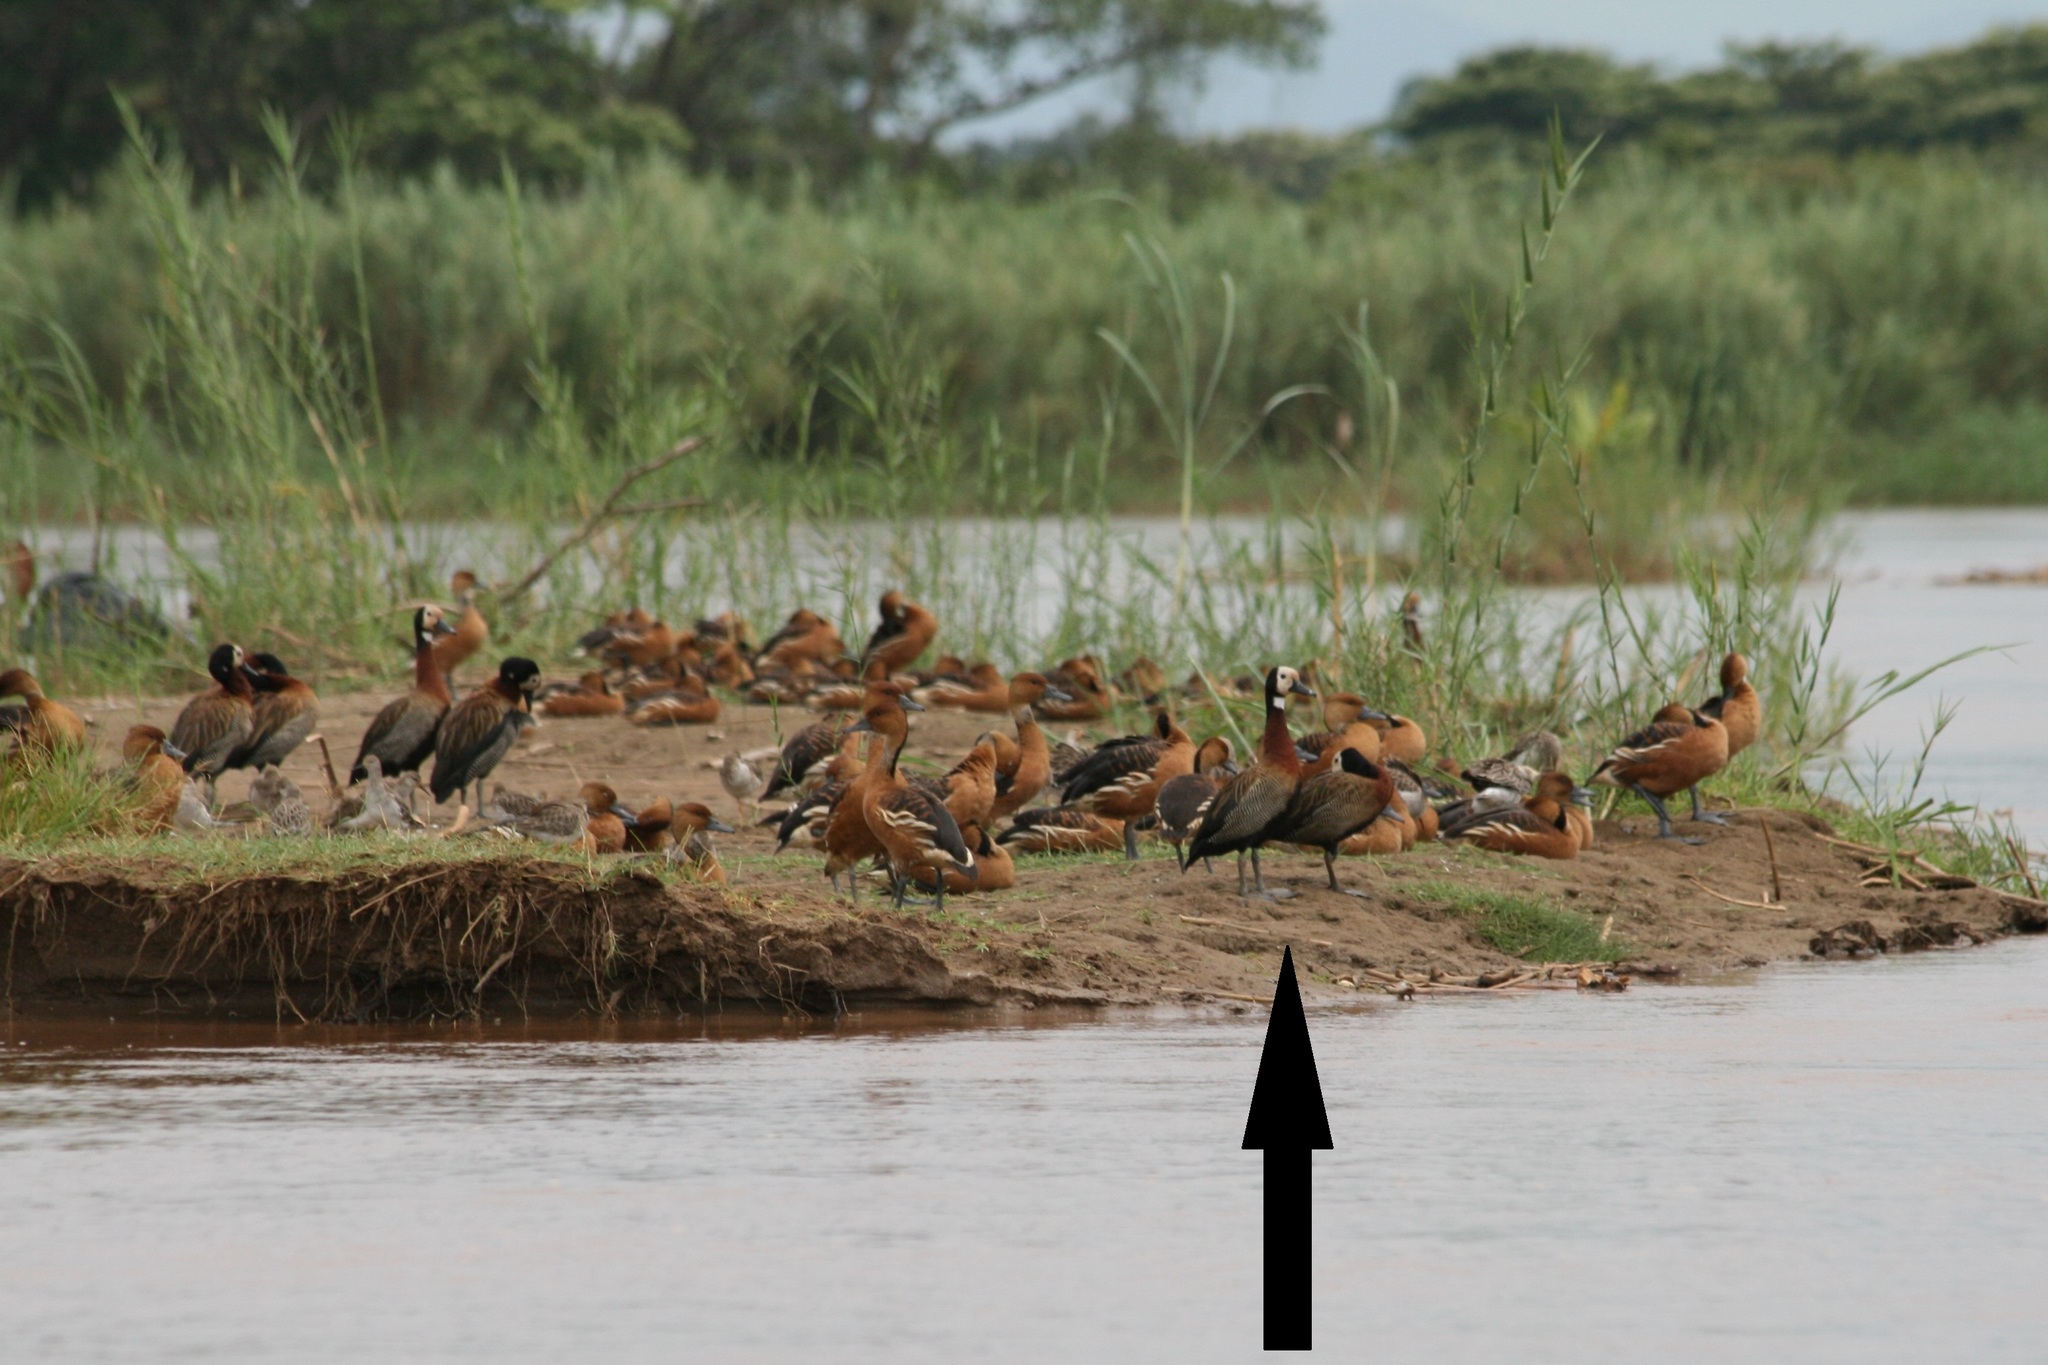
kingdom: Animalia
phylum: Chordata
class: Aves
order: Anseriformes
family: Anatidae
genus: Dendrocygna
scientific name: Dendrocygna viduata
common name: White-faced whistling duck
